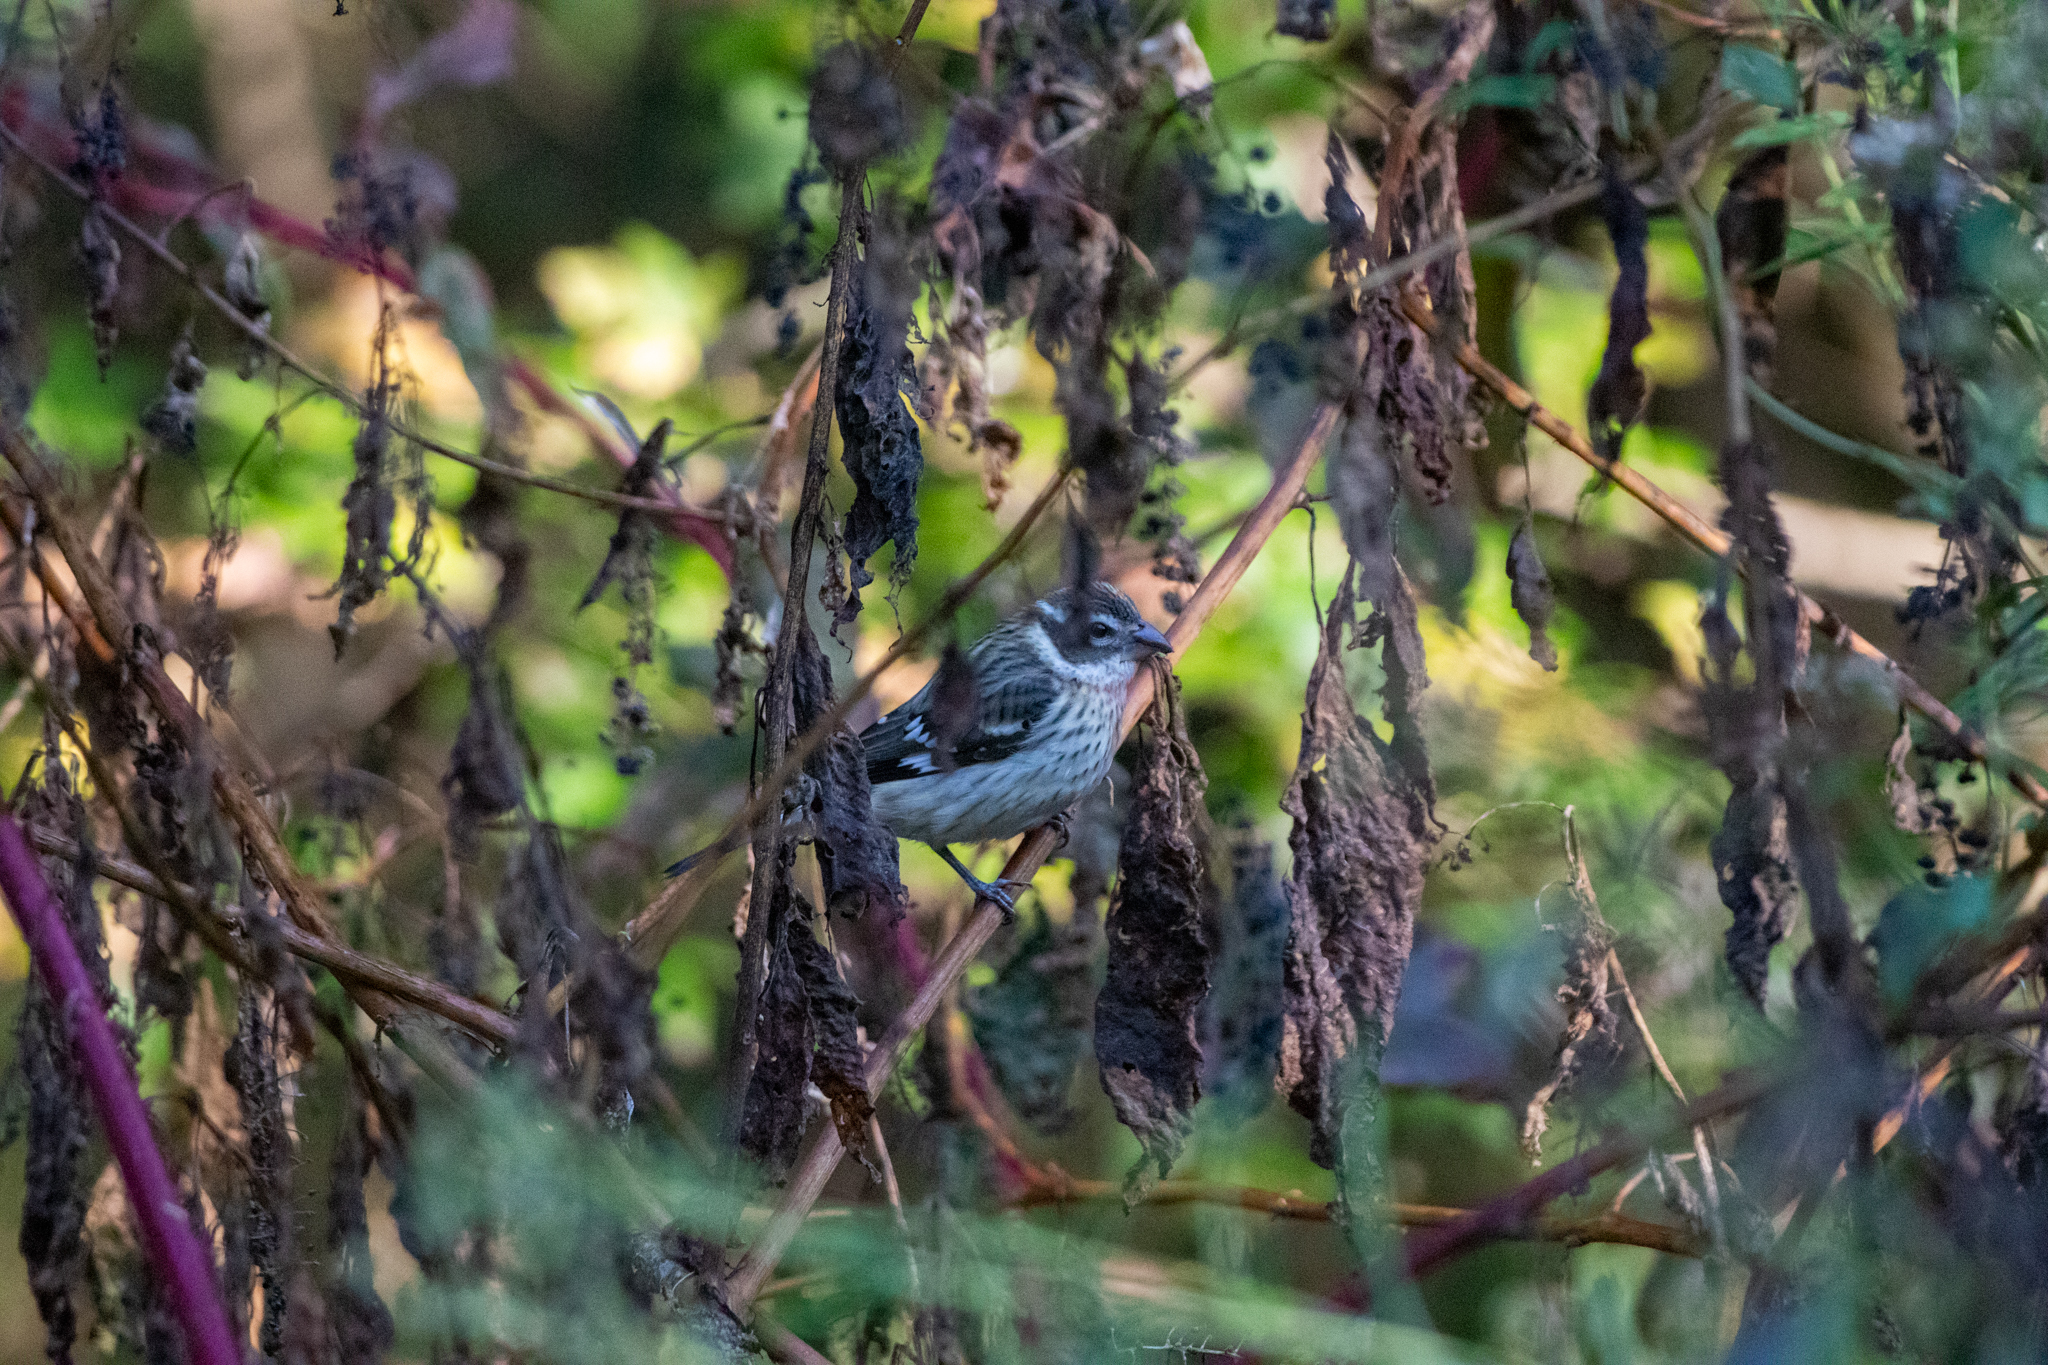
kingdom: Animalia
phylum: Chordata
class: Aves
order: Passeriformes
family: Cardinalidae
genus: Pheucticus
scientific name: Pheucticus ludovicianus
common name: Rose-breasted grosbeak
